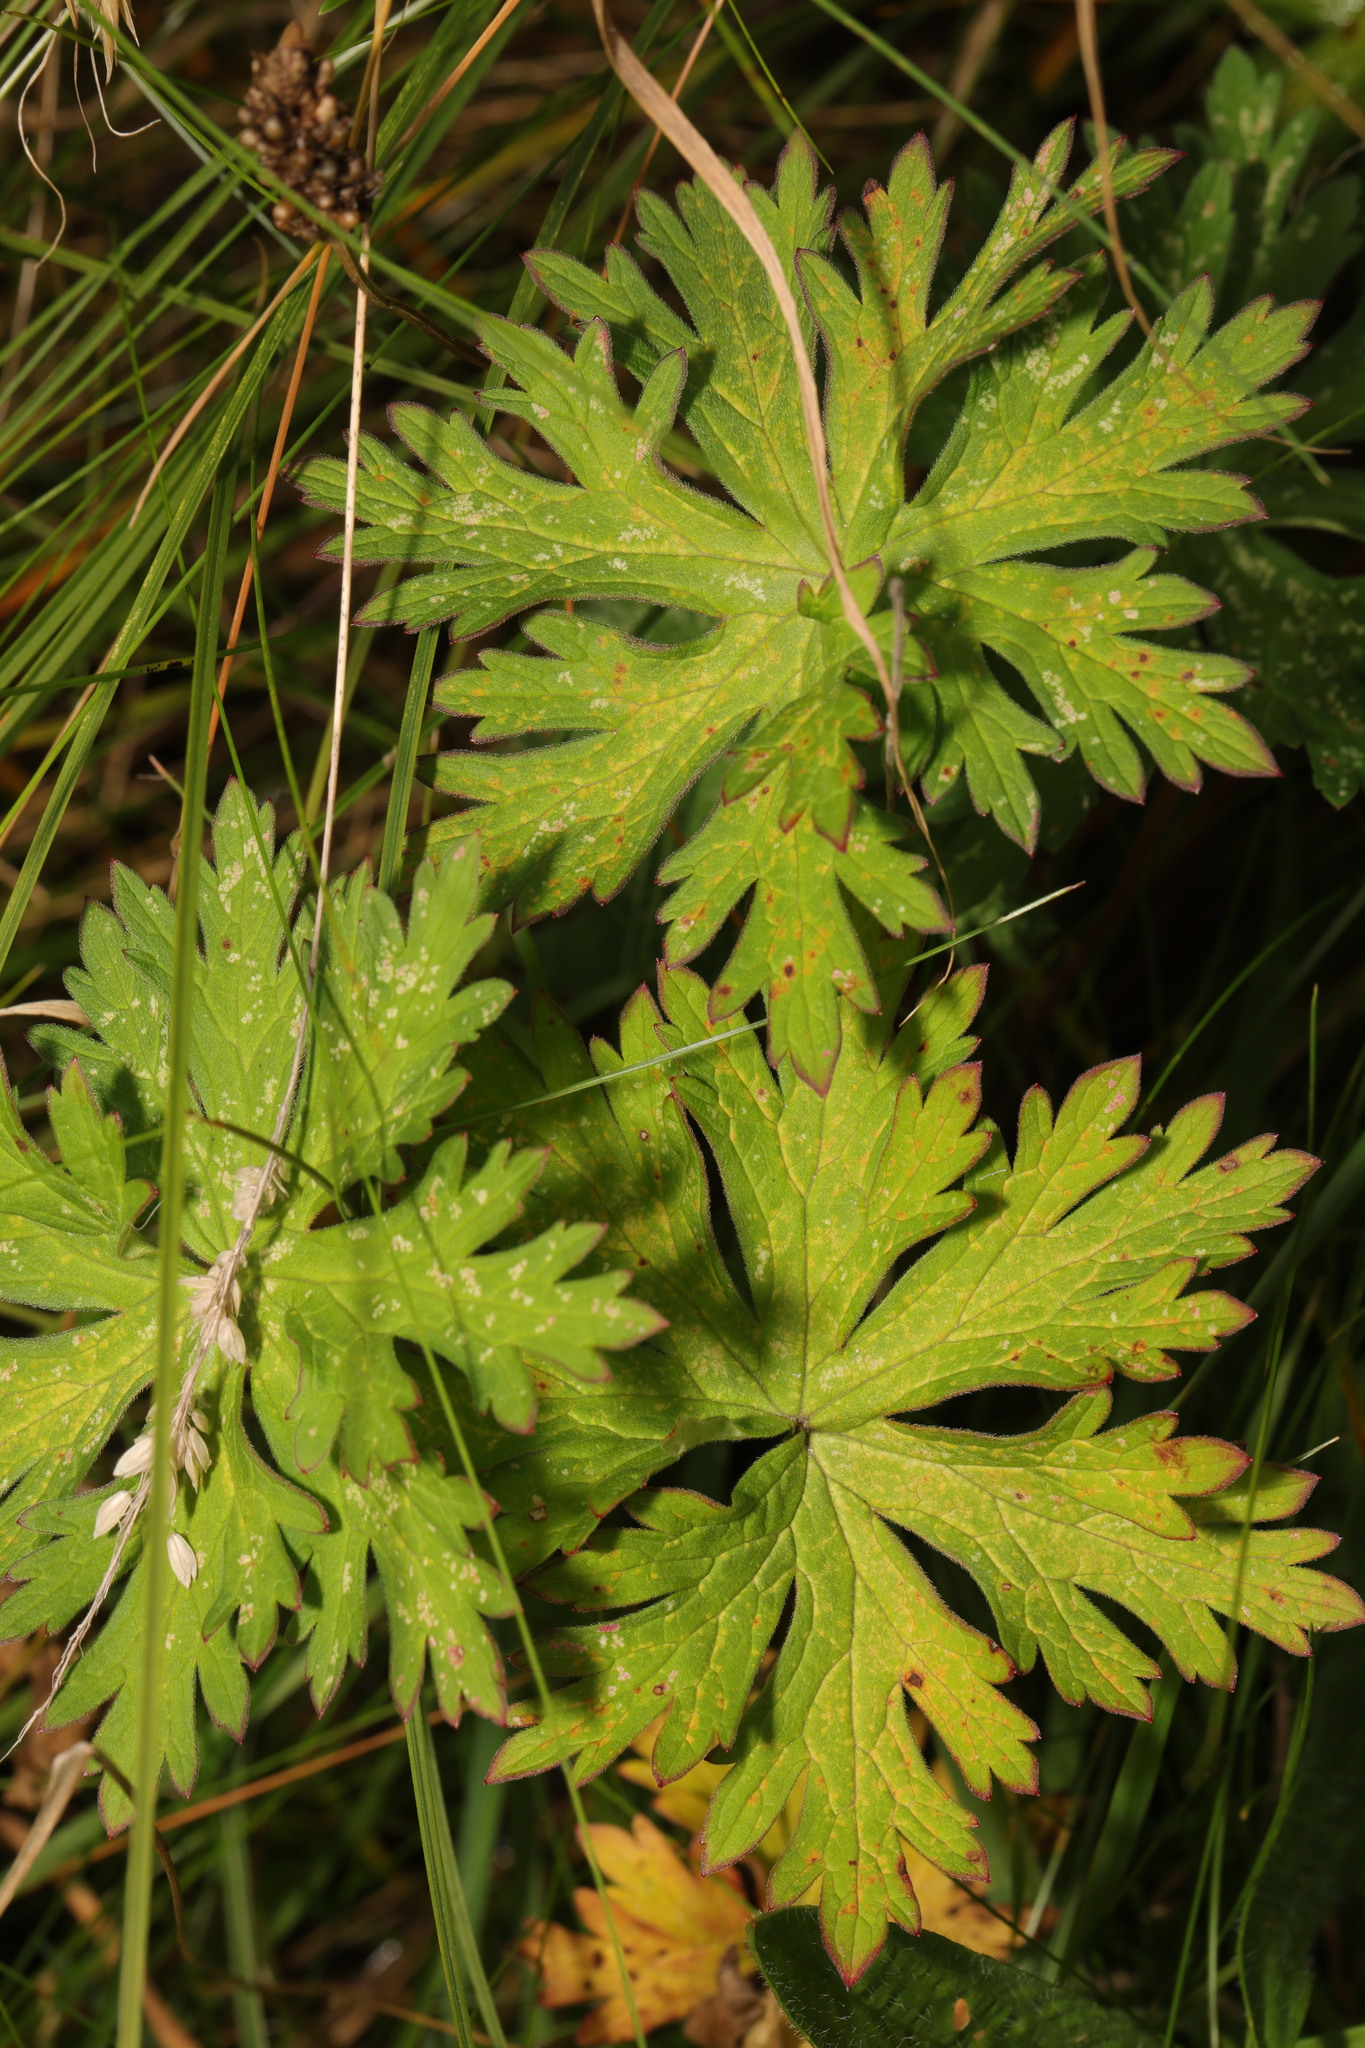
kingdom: Plantae
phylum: Tracheophyta
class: Magnoliopsida
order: Geraniales
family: Geraniaceae
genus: Geranium
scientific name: Geranium pratense
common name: Meadow crane's-bill
